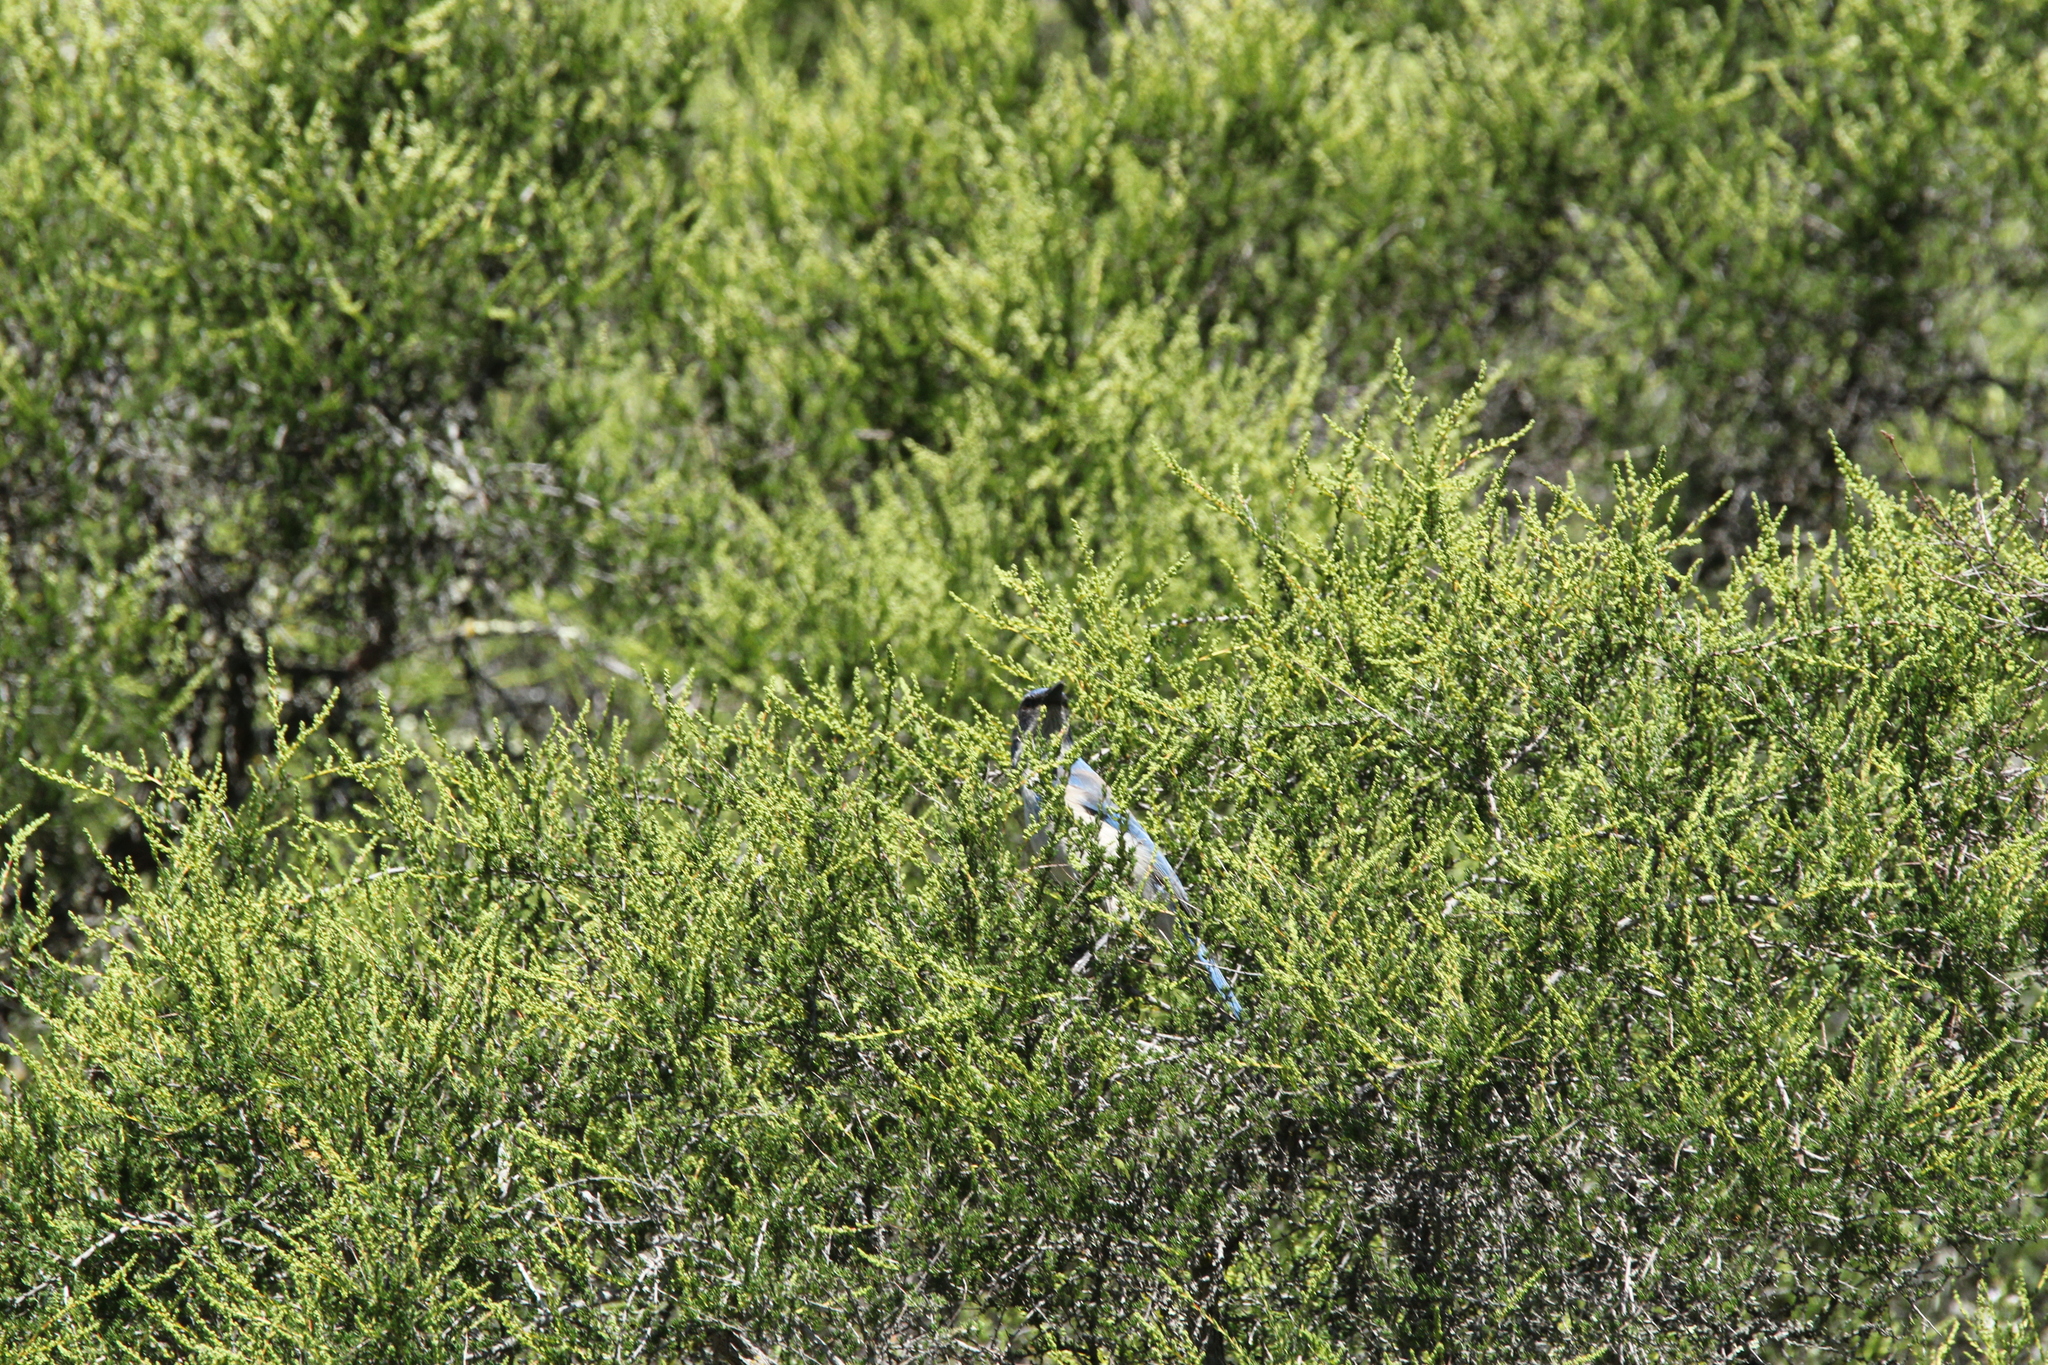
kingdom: Animalia
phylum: Chordata
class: Aves
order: Passeriformes
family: Corvidae
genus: Aphelocoma
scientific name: Aphelocoma californica
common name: California scrub-jay
